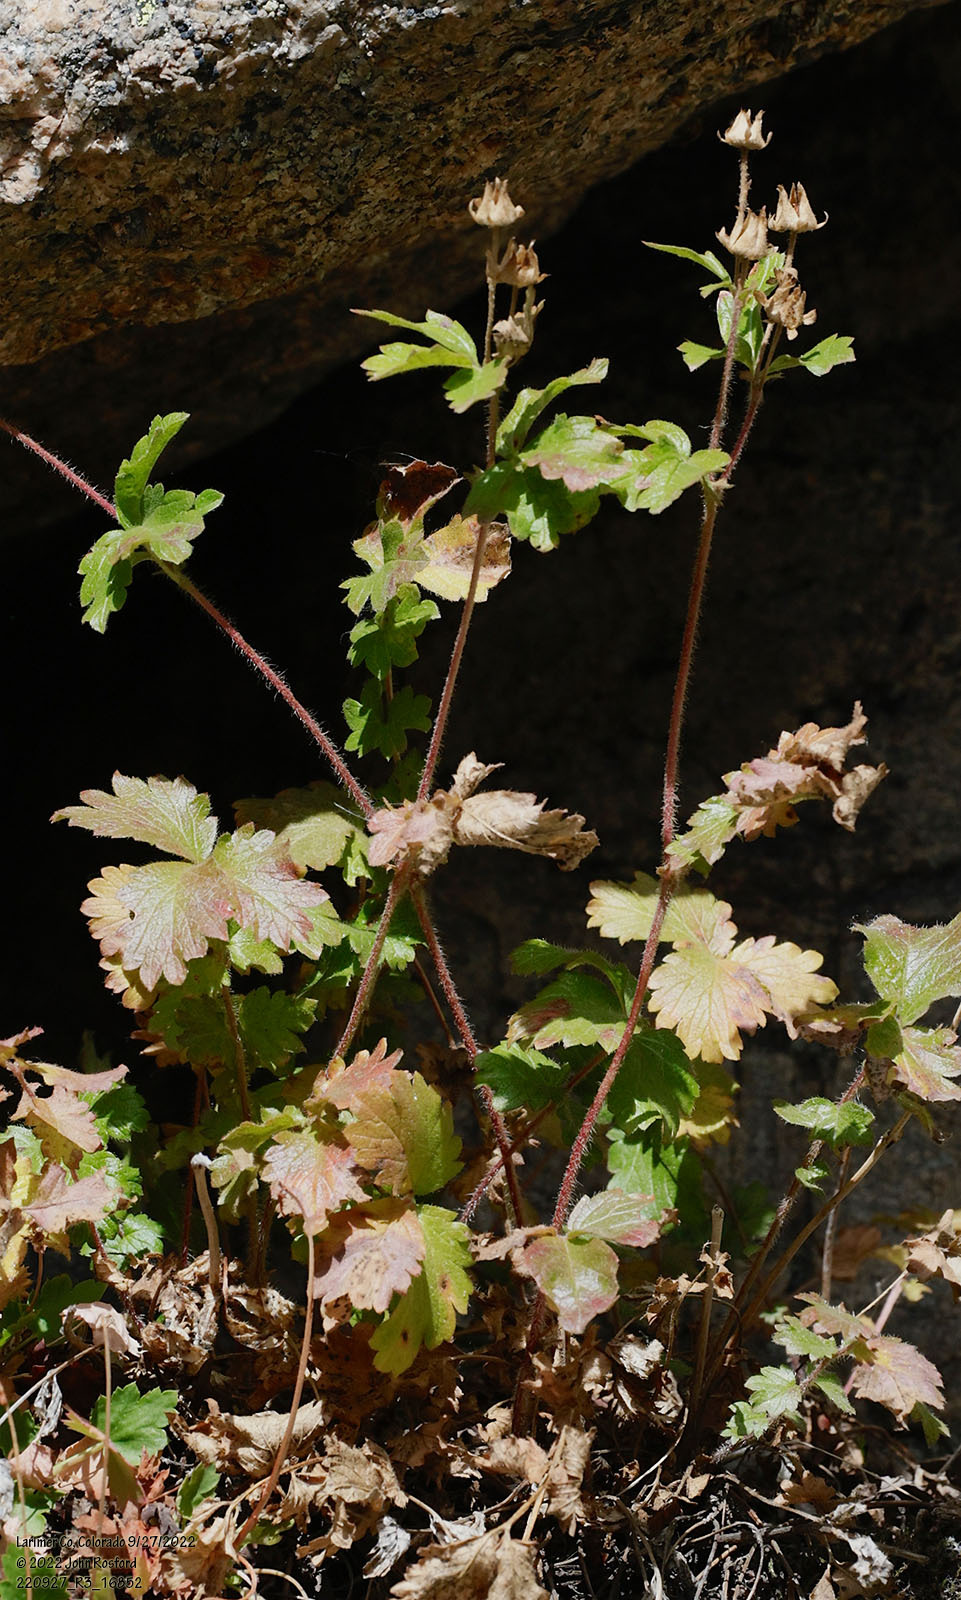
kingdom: Plantae
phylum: Tracheophyta
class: Magnoliopsida
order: Rosales
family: Rosaceae
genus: Drymocallis
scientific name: Drymocallis fissa
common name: Big-flowered cinquefoil
